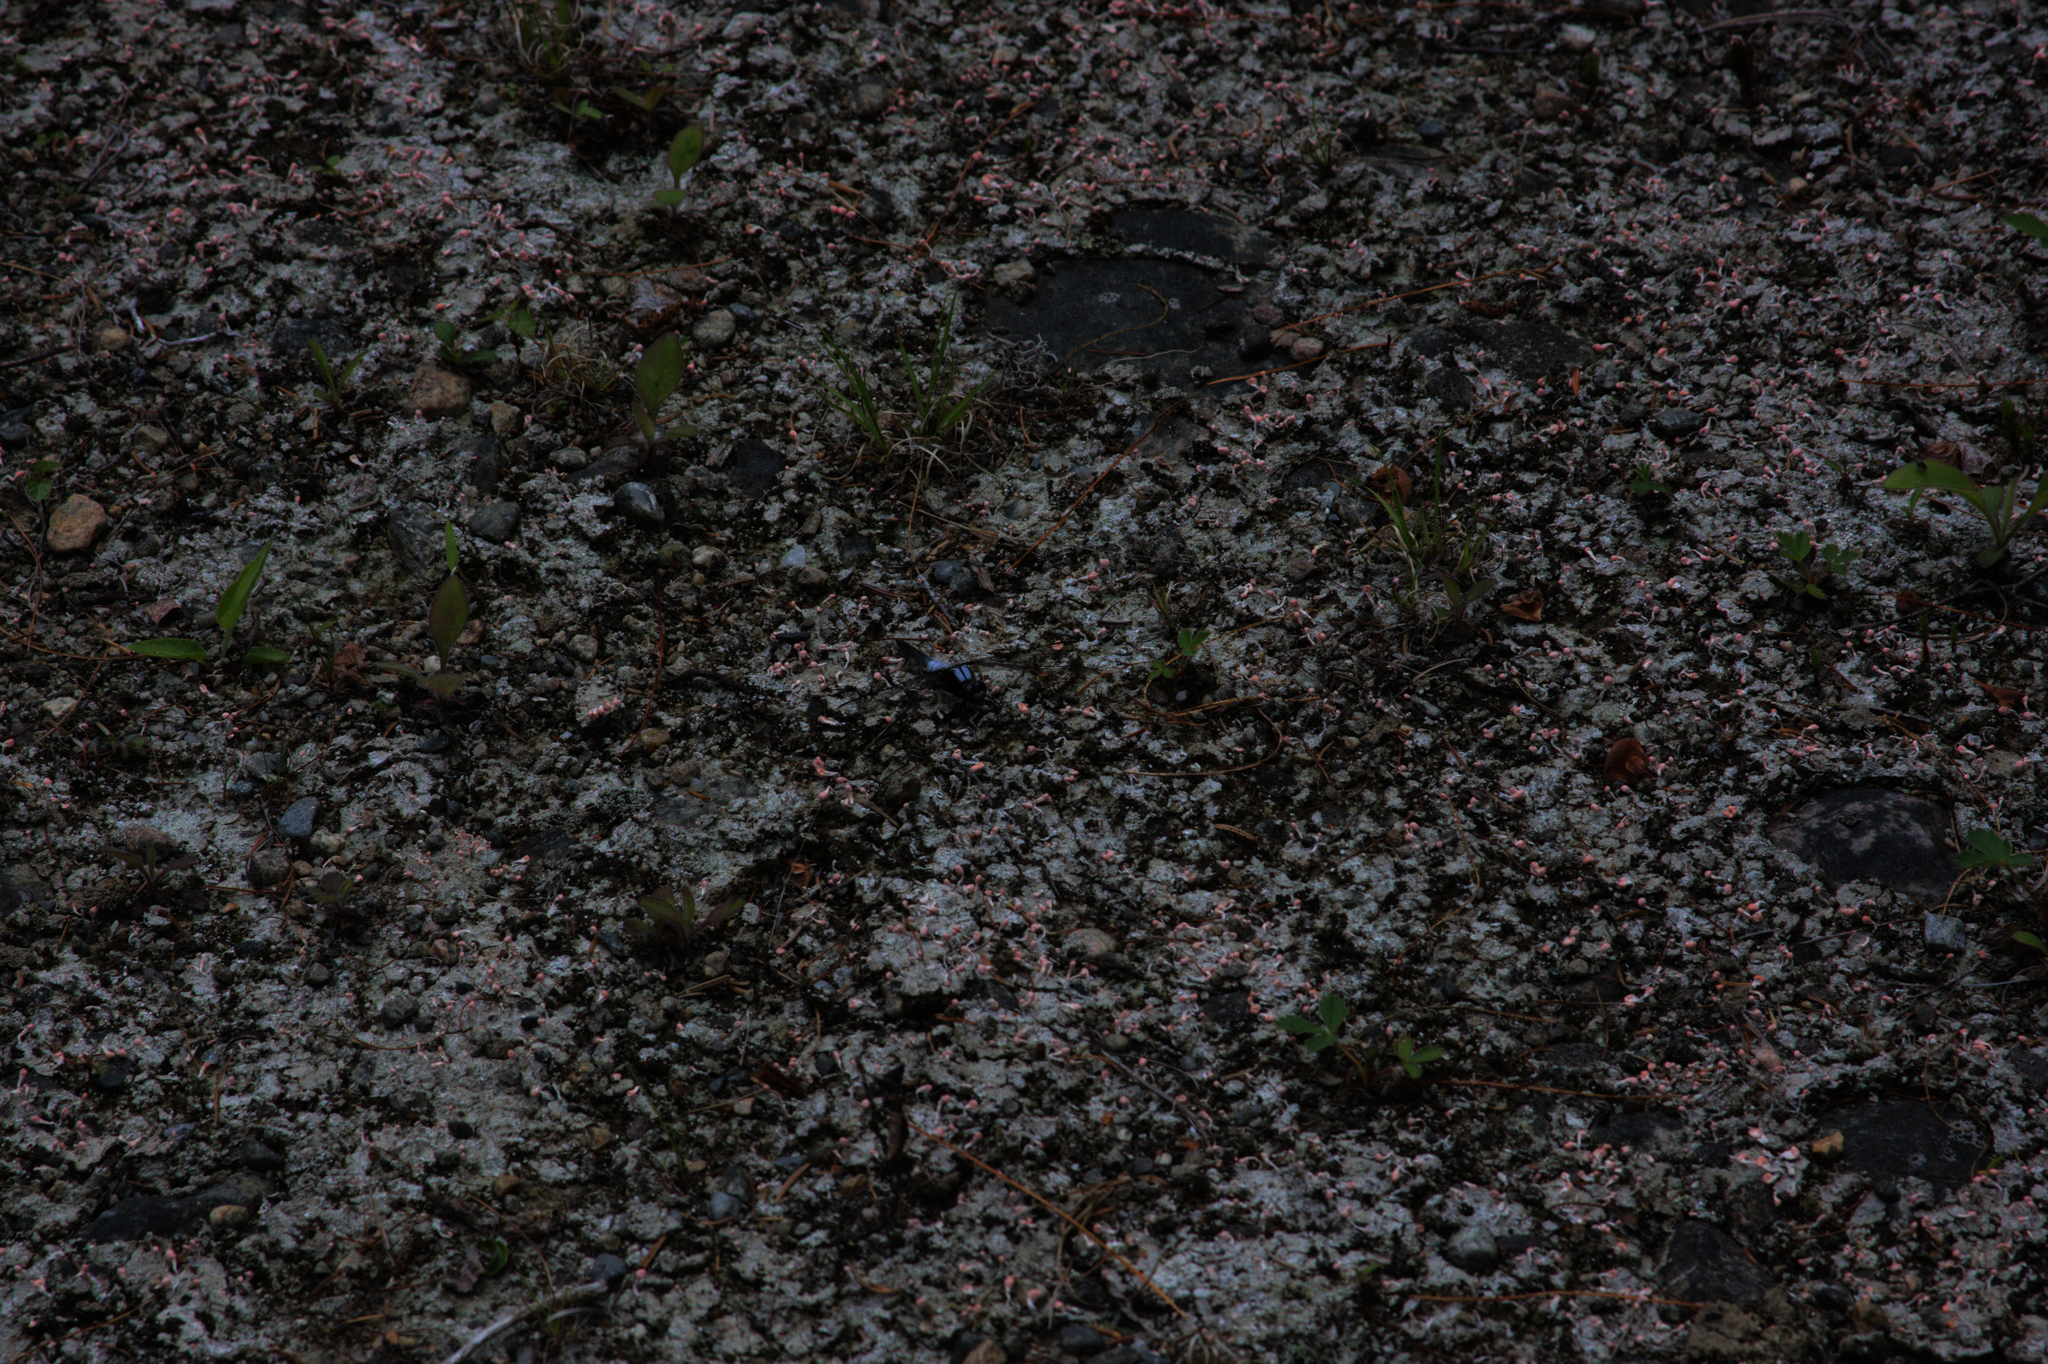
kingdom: Fungi
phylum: Ascomycota
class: Lecanoromycetes
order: Pertusariales
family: Icmadophilaceae
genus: Dibaeis
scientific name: Dibaeis baeomyces
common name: Pink earth lichen
